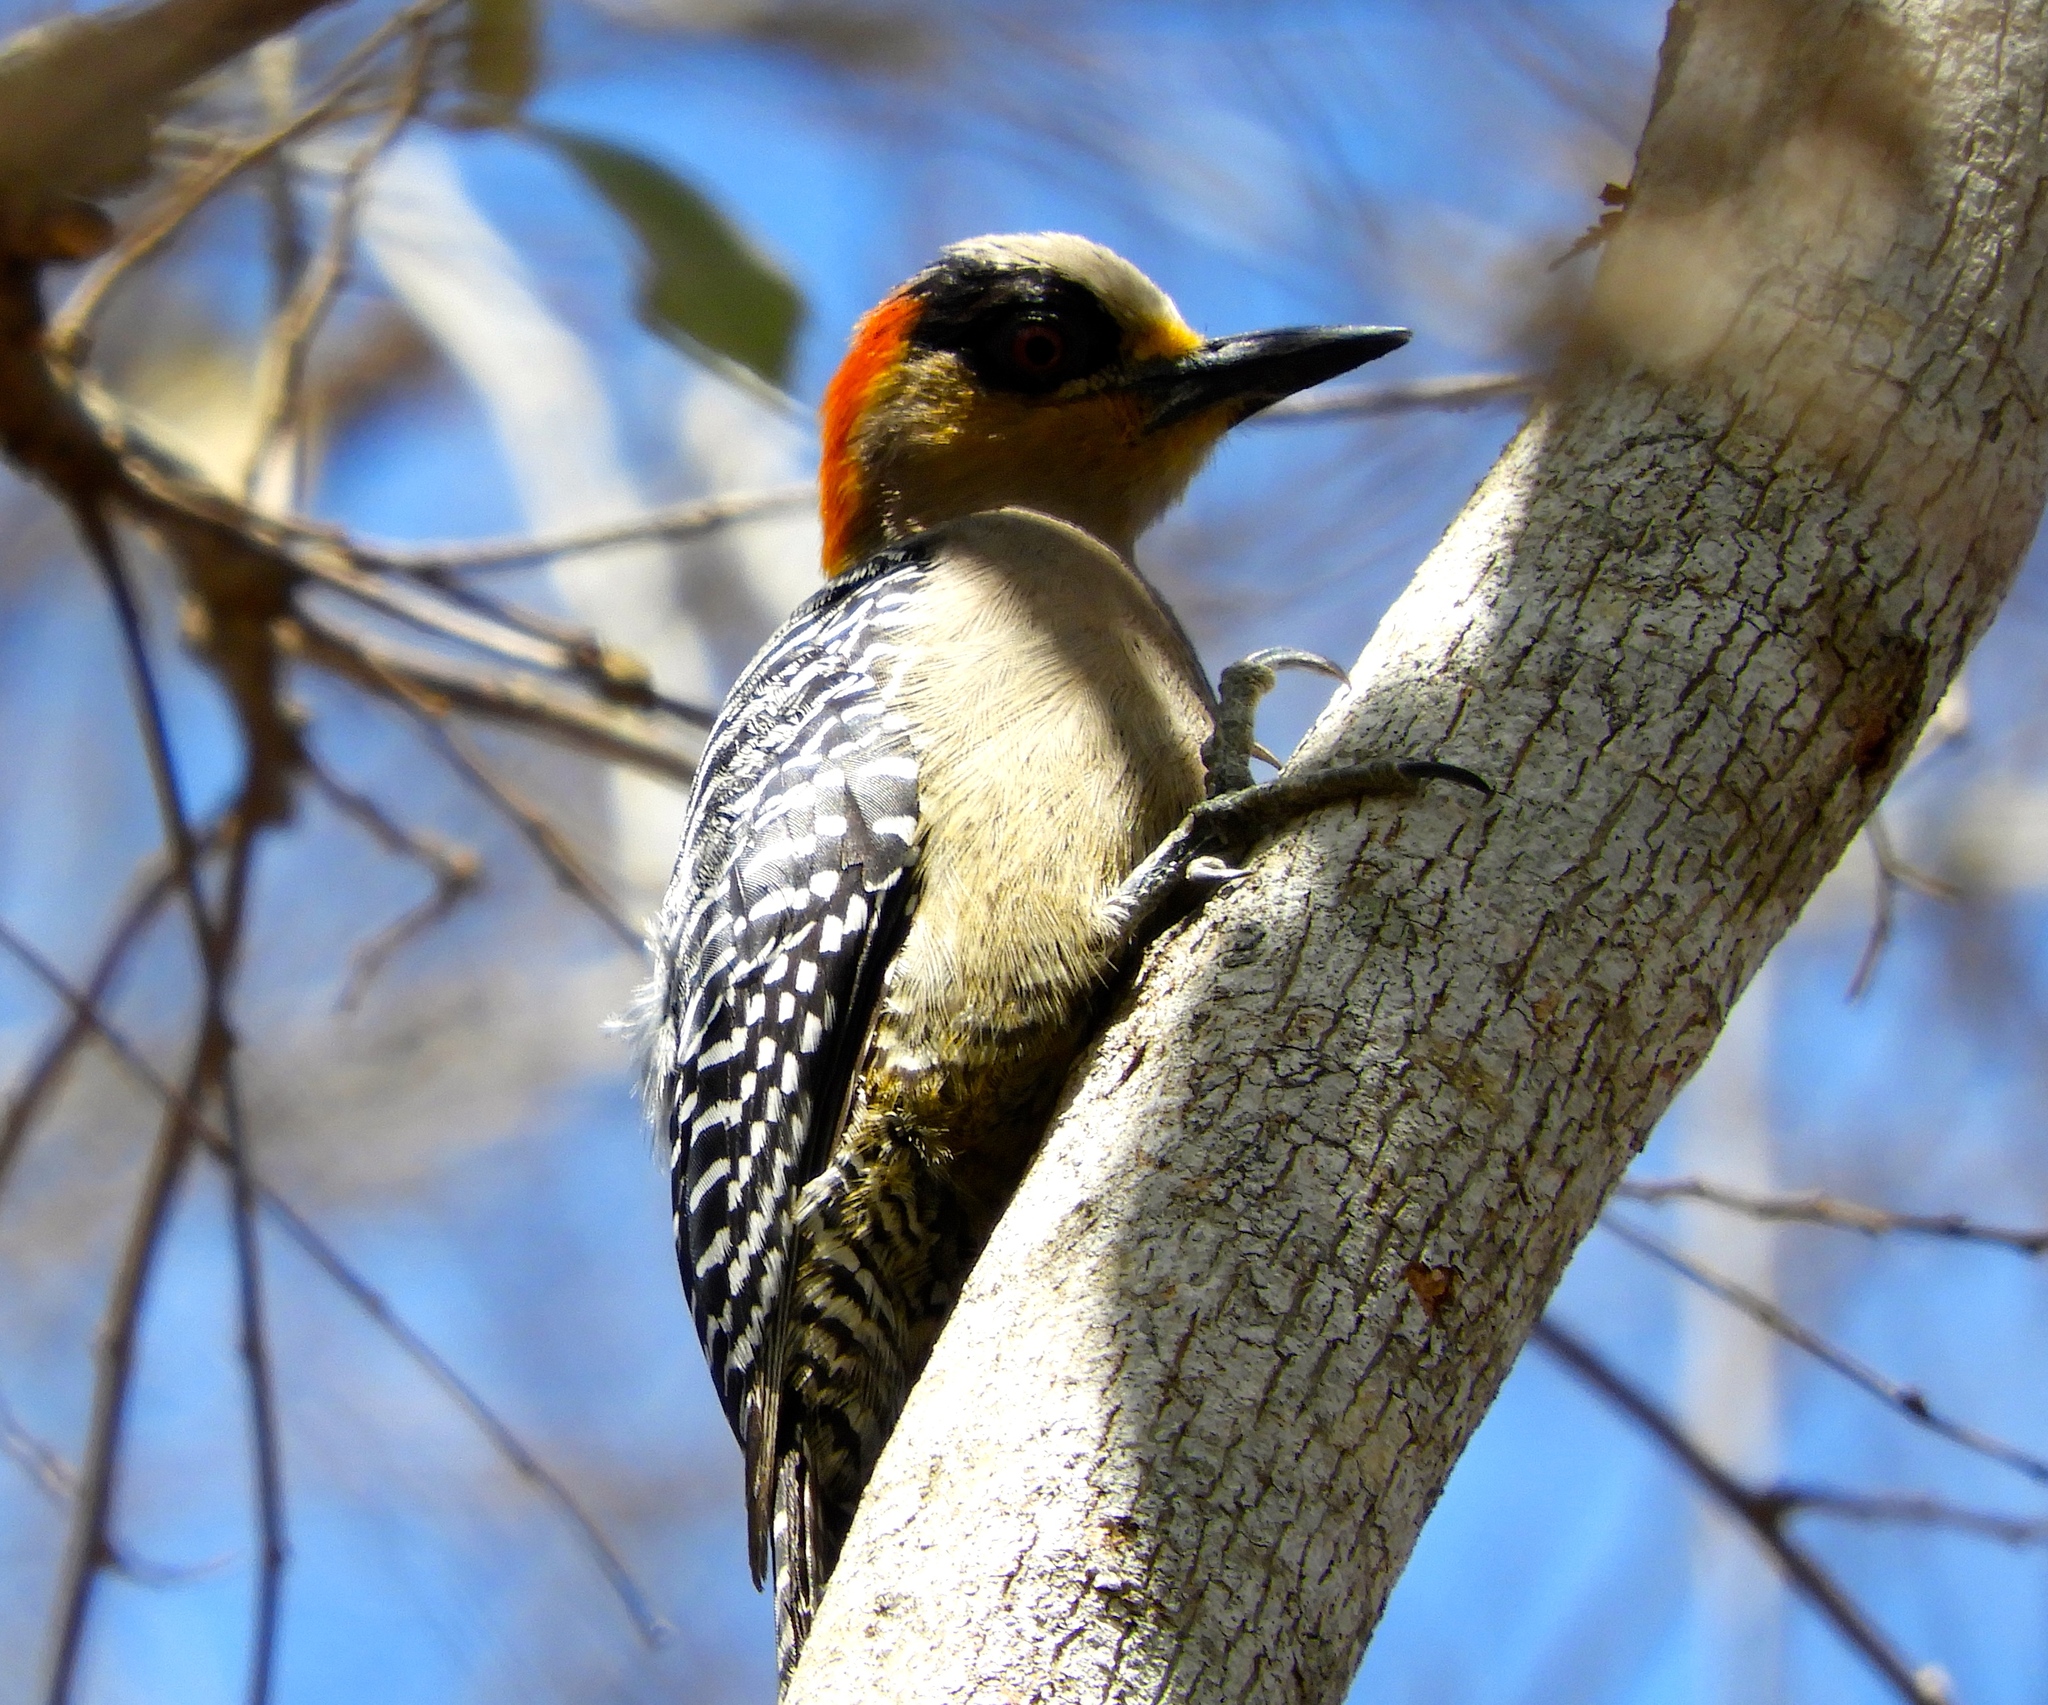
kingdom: Animalia
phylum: Chordata
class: Aves
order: Piciformes
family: Picidae
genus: Melanerpes
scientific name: Melanerpes chrysogenys
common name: Golden-cheeked woodpecker
